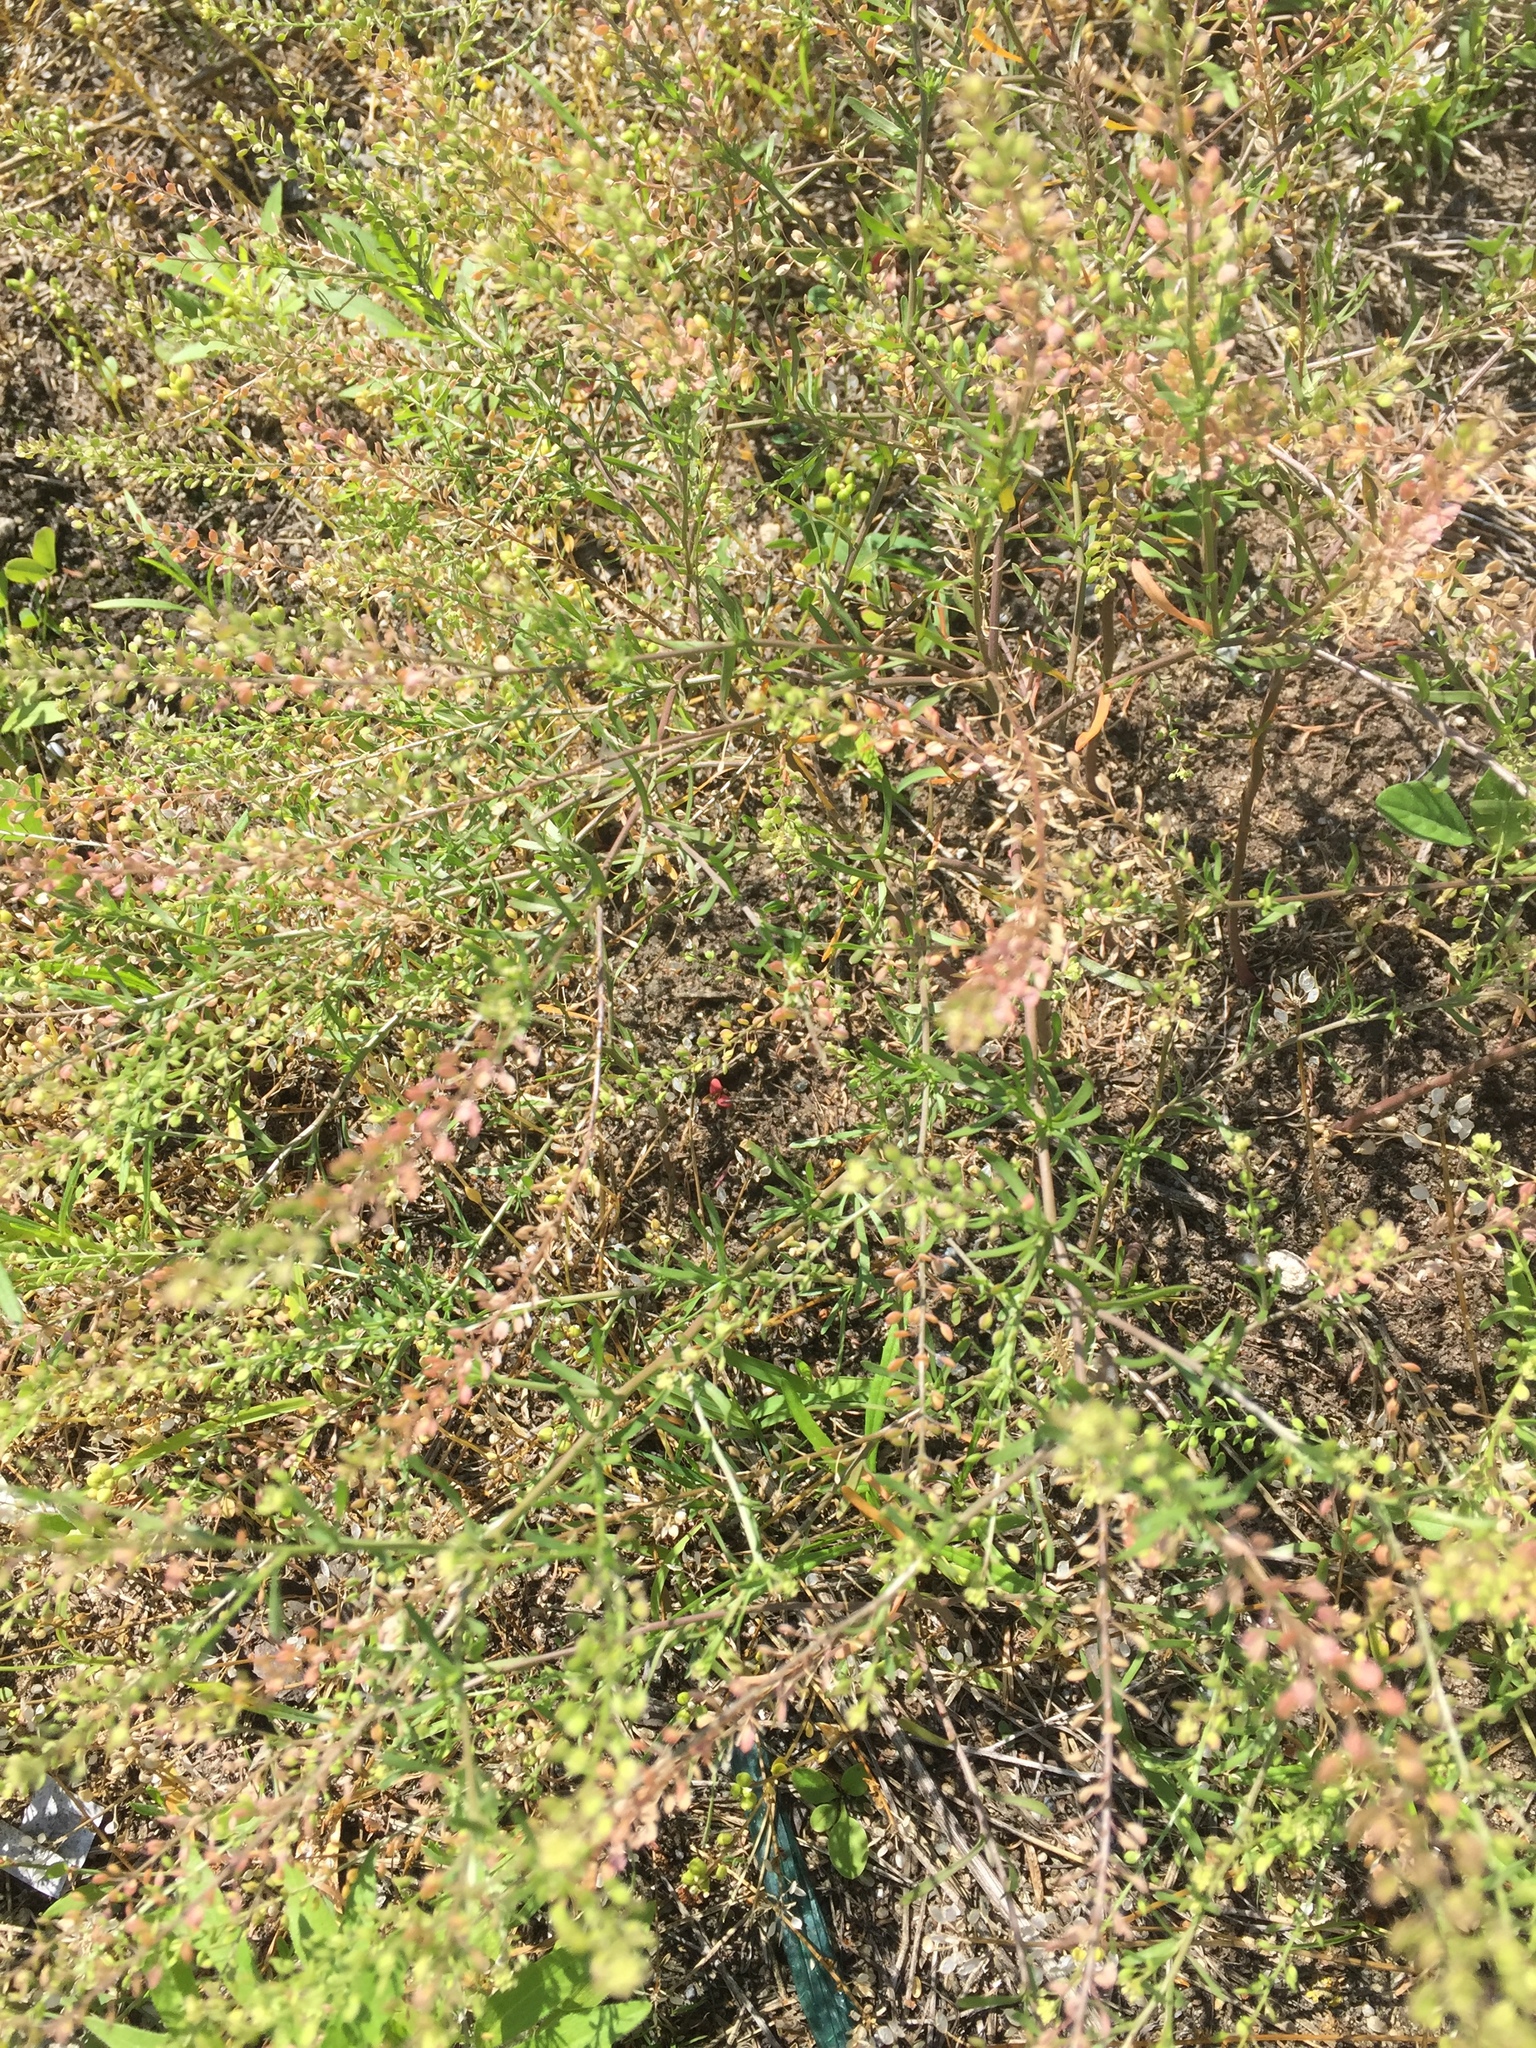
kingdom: Plantae
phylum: Tracheophyta
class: Magnoliopsida
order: Brassicales
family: Brassicaceae
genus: Cochlearia
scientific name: Cochlearia danica
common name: Early scurvygrass
